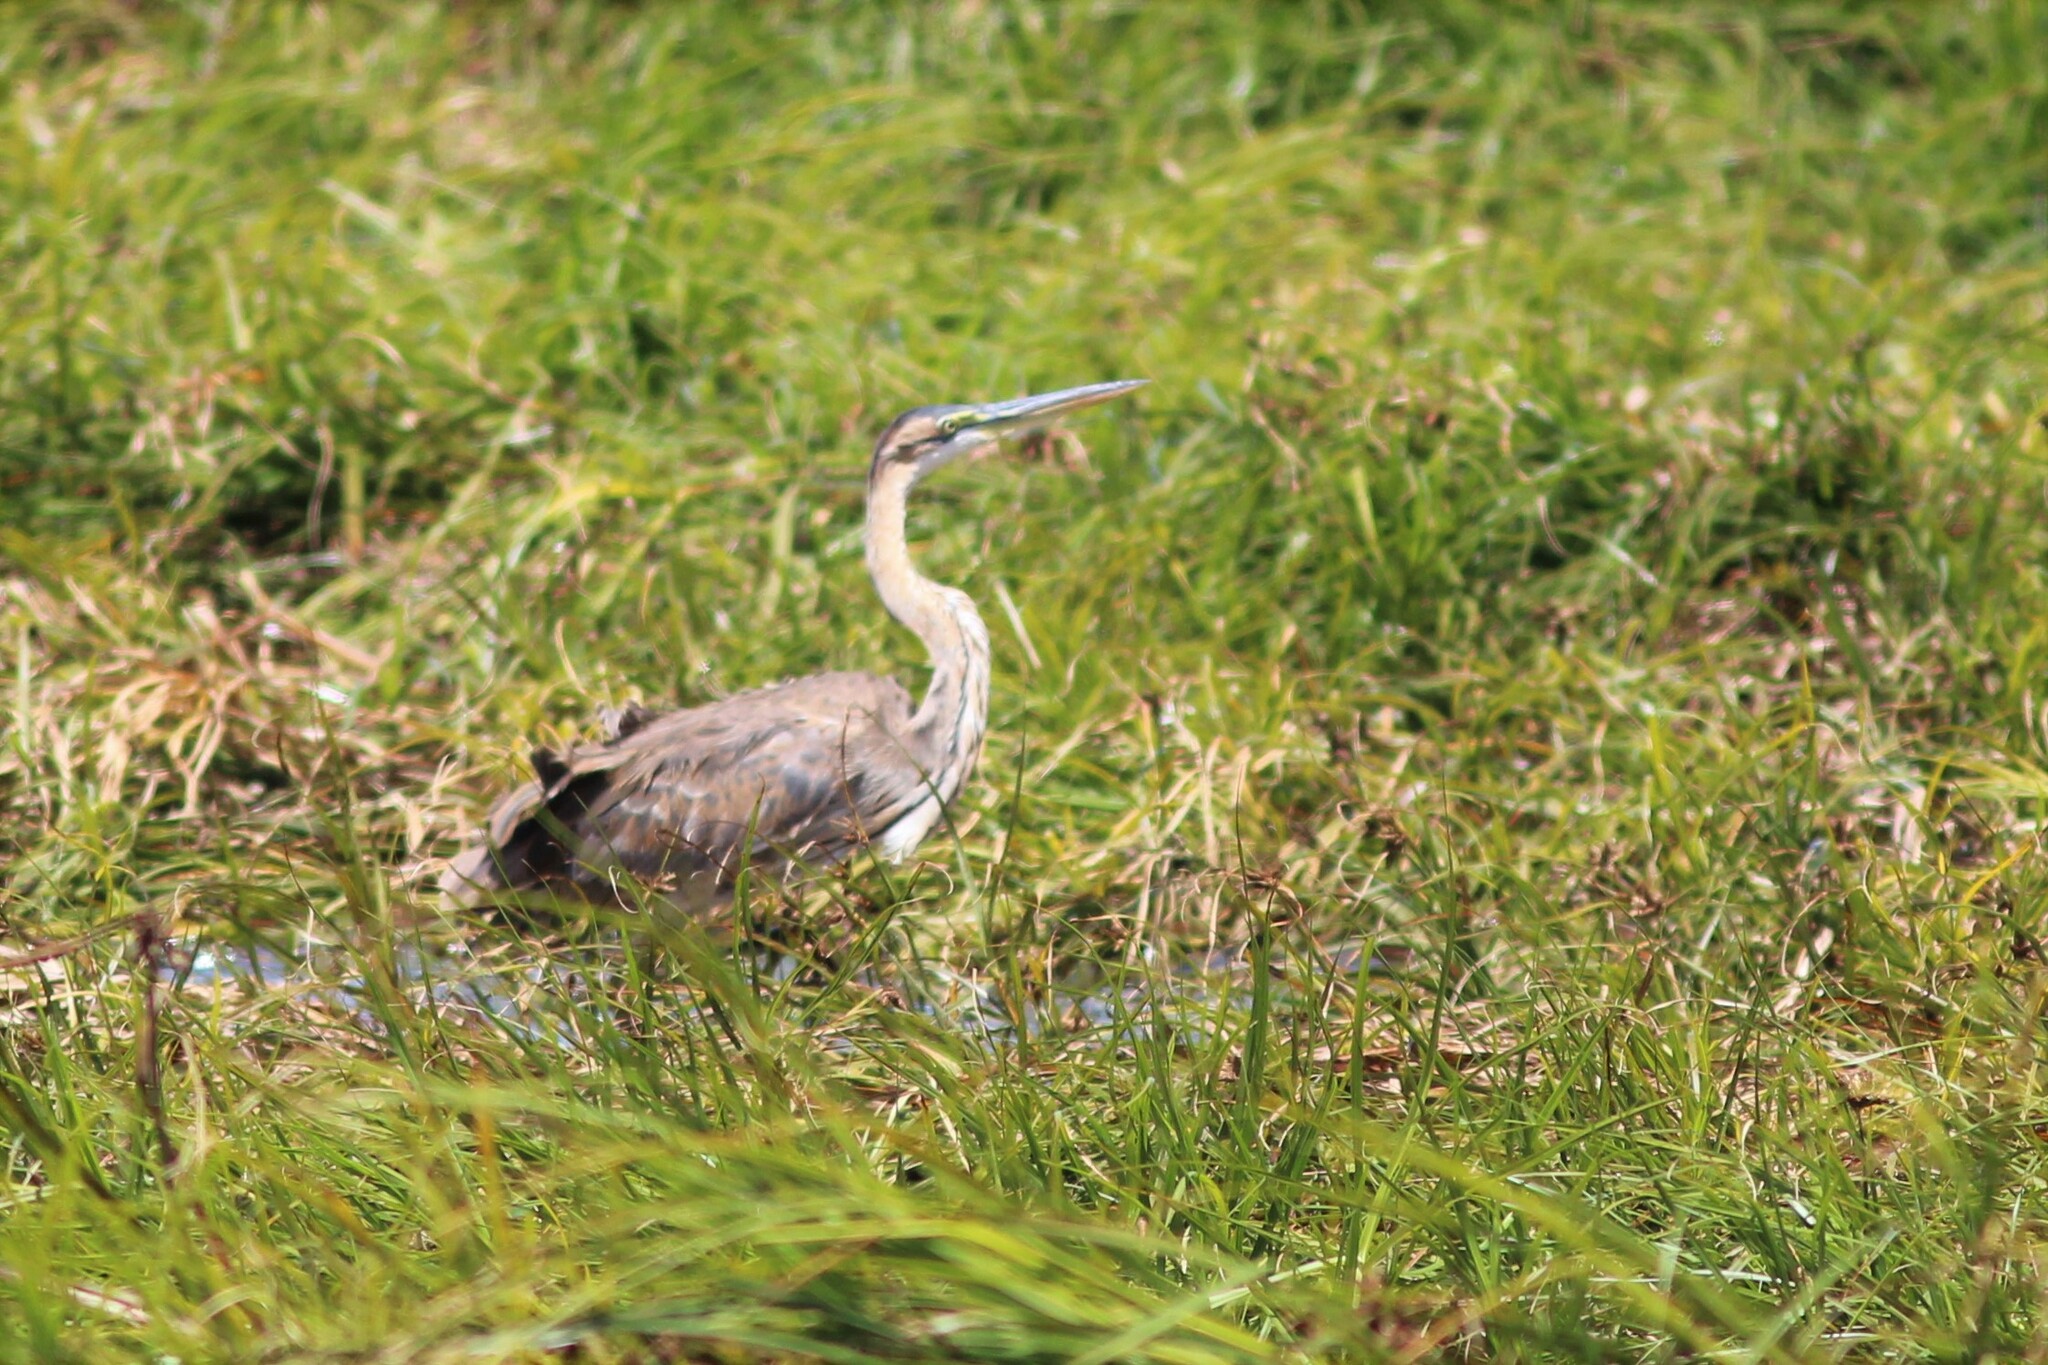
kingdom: Animalia
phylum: Chordata
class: Aves
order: Pelecaniformes
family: Ardeidae
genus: Ardea
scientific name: Ardea purpurea
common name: Purple heron
